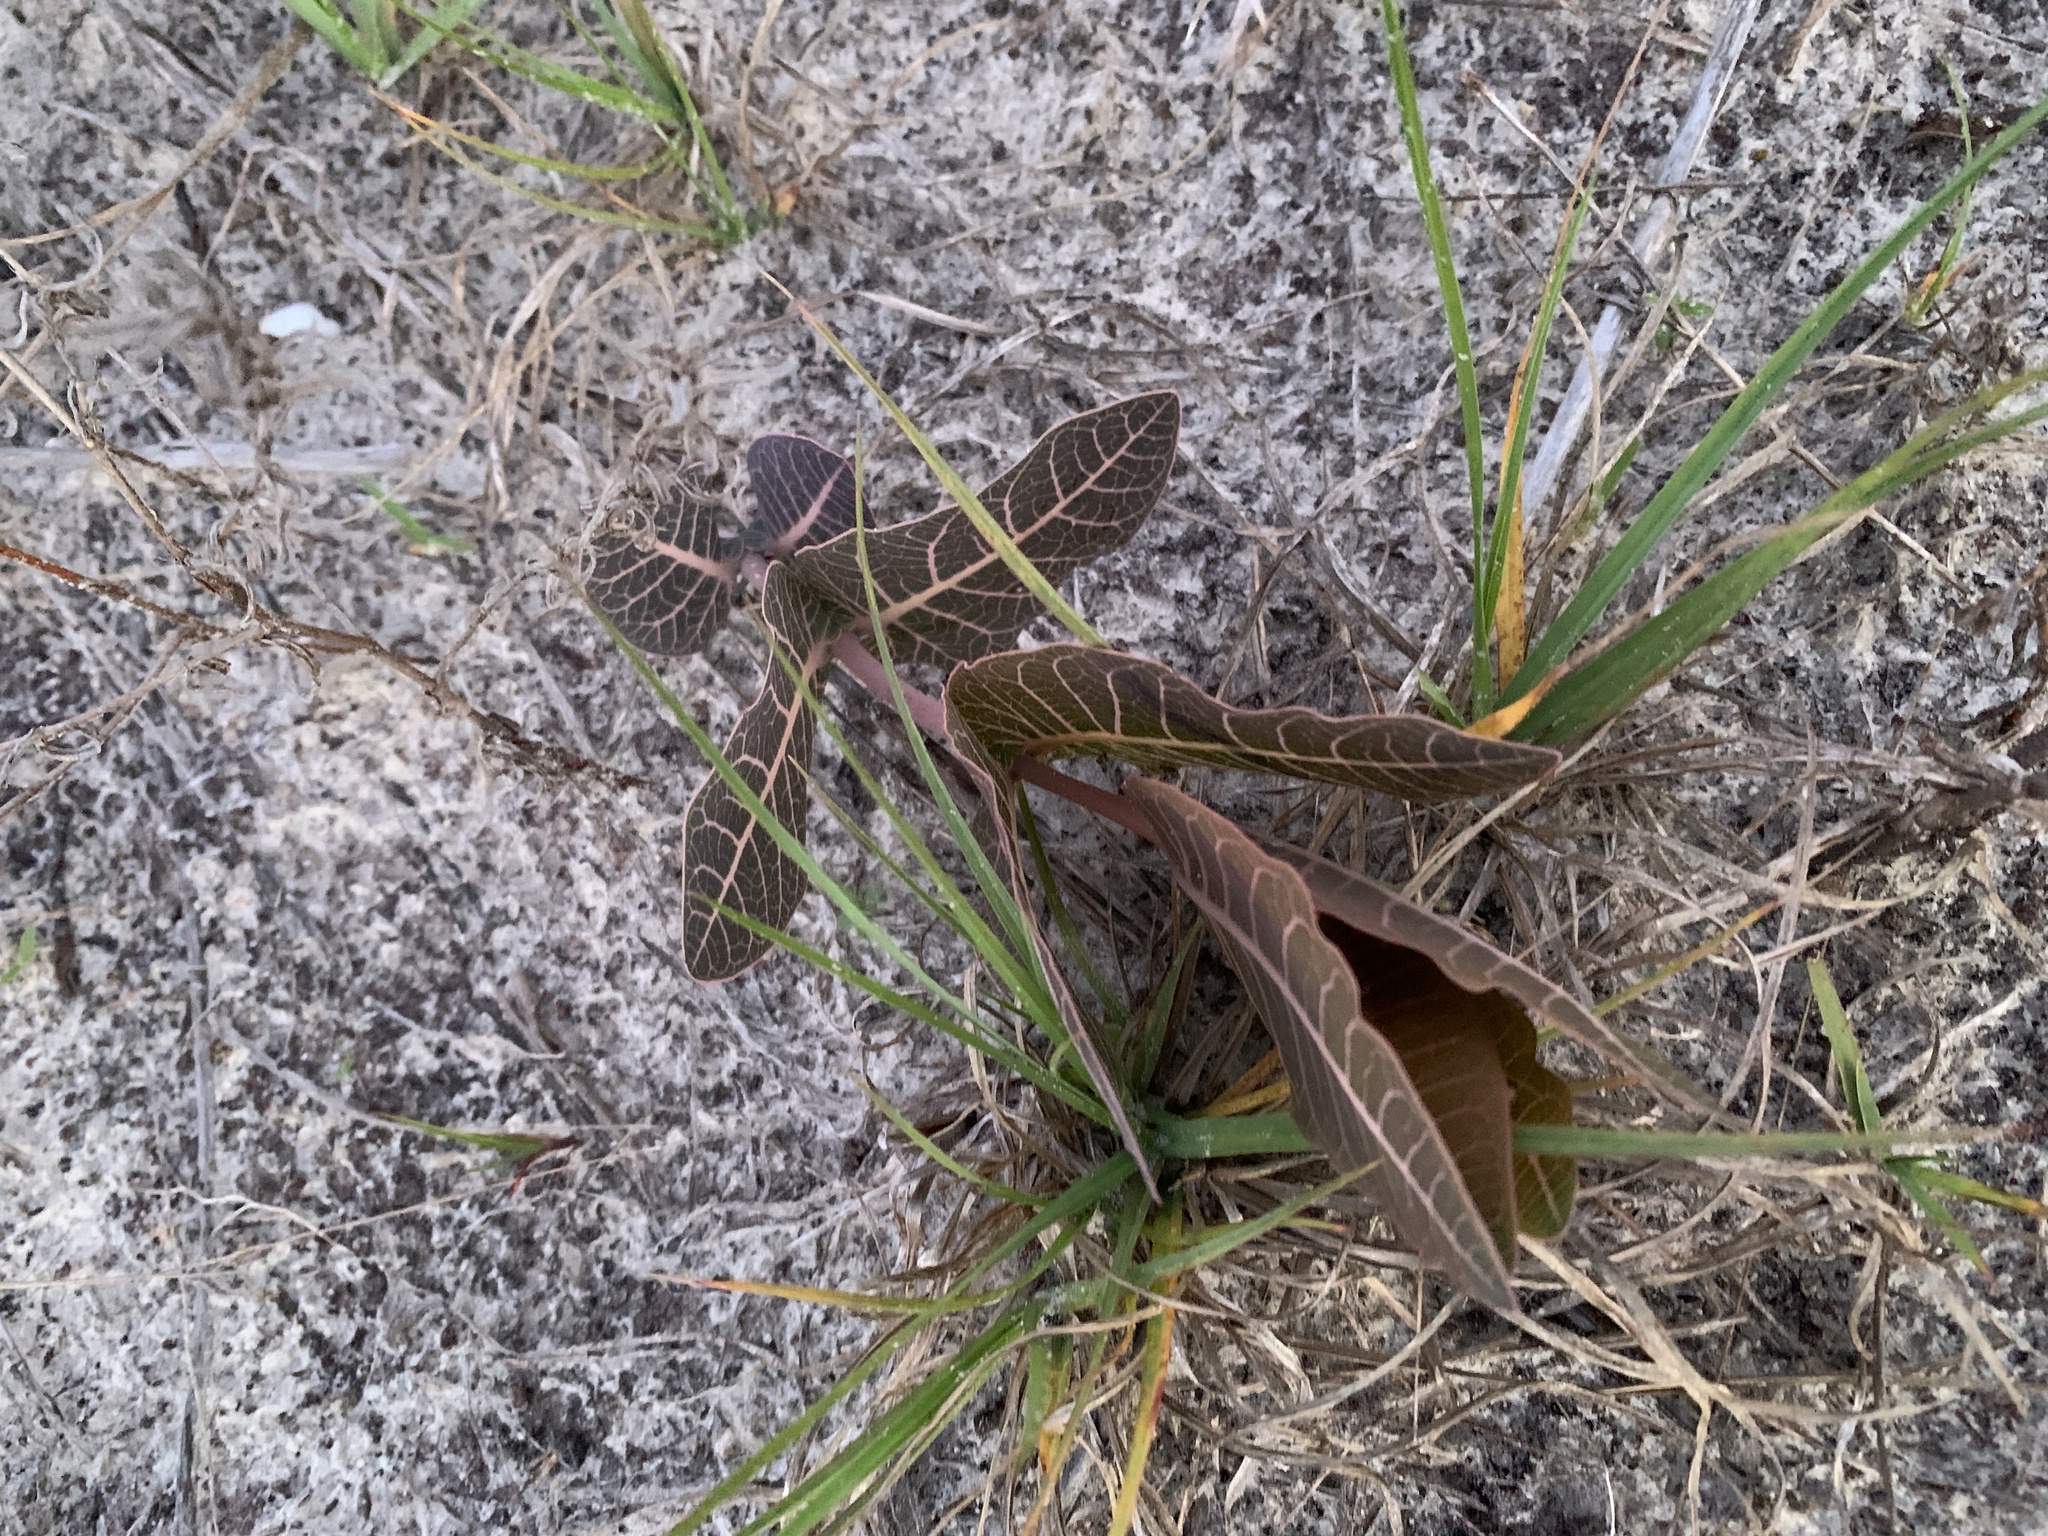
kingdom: Plantae
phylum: Tracheophyta
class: Magnoliopsida
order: Gentianales
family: Apocynaceae
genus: Asclepias
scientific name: Asclepias humistrata
